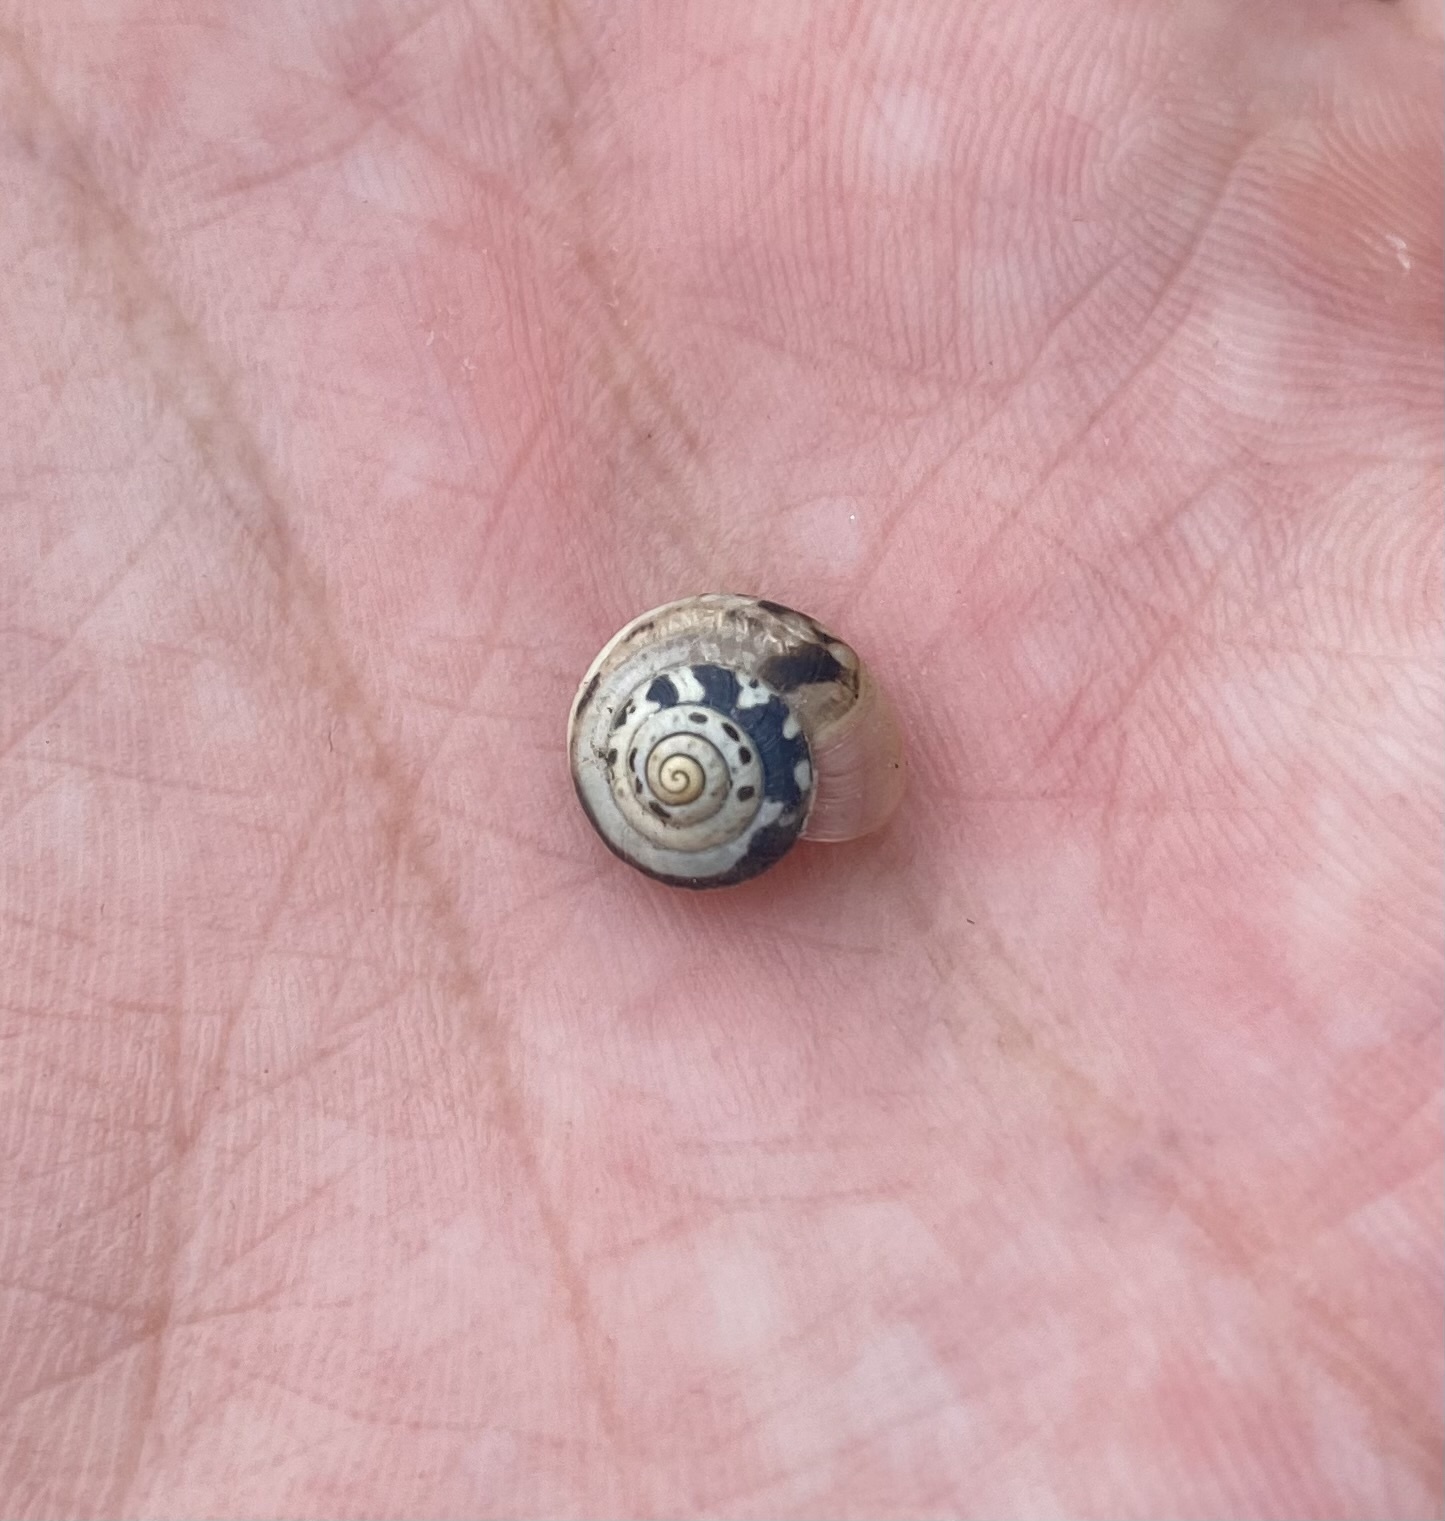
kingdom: Animalia
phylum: Mollusca
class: Gastropoda
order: Stylommatophora
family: Hygromiidae
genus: Monacha
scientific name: Monacha cartusiana
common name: Carthusian snail
